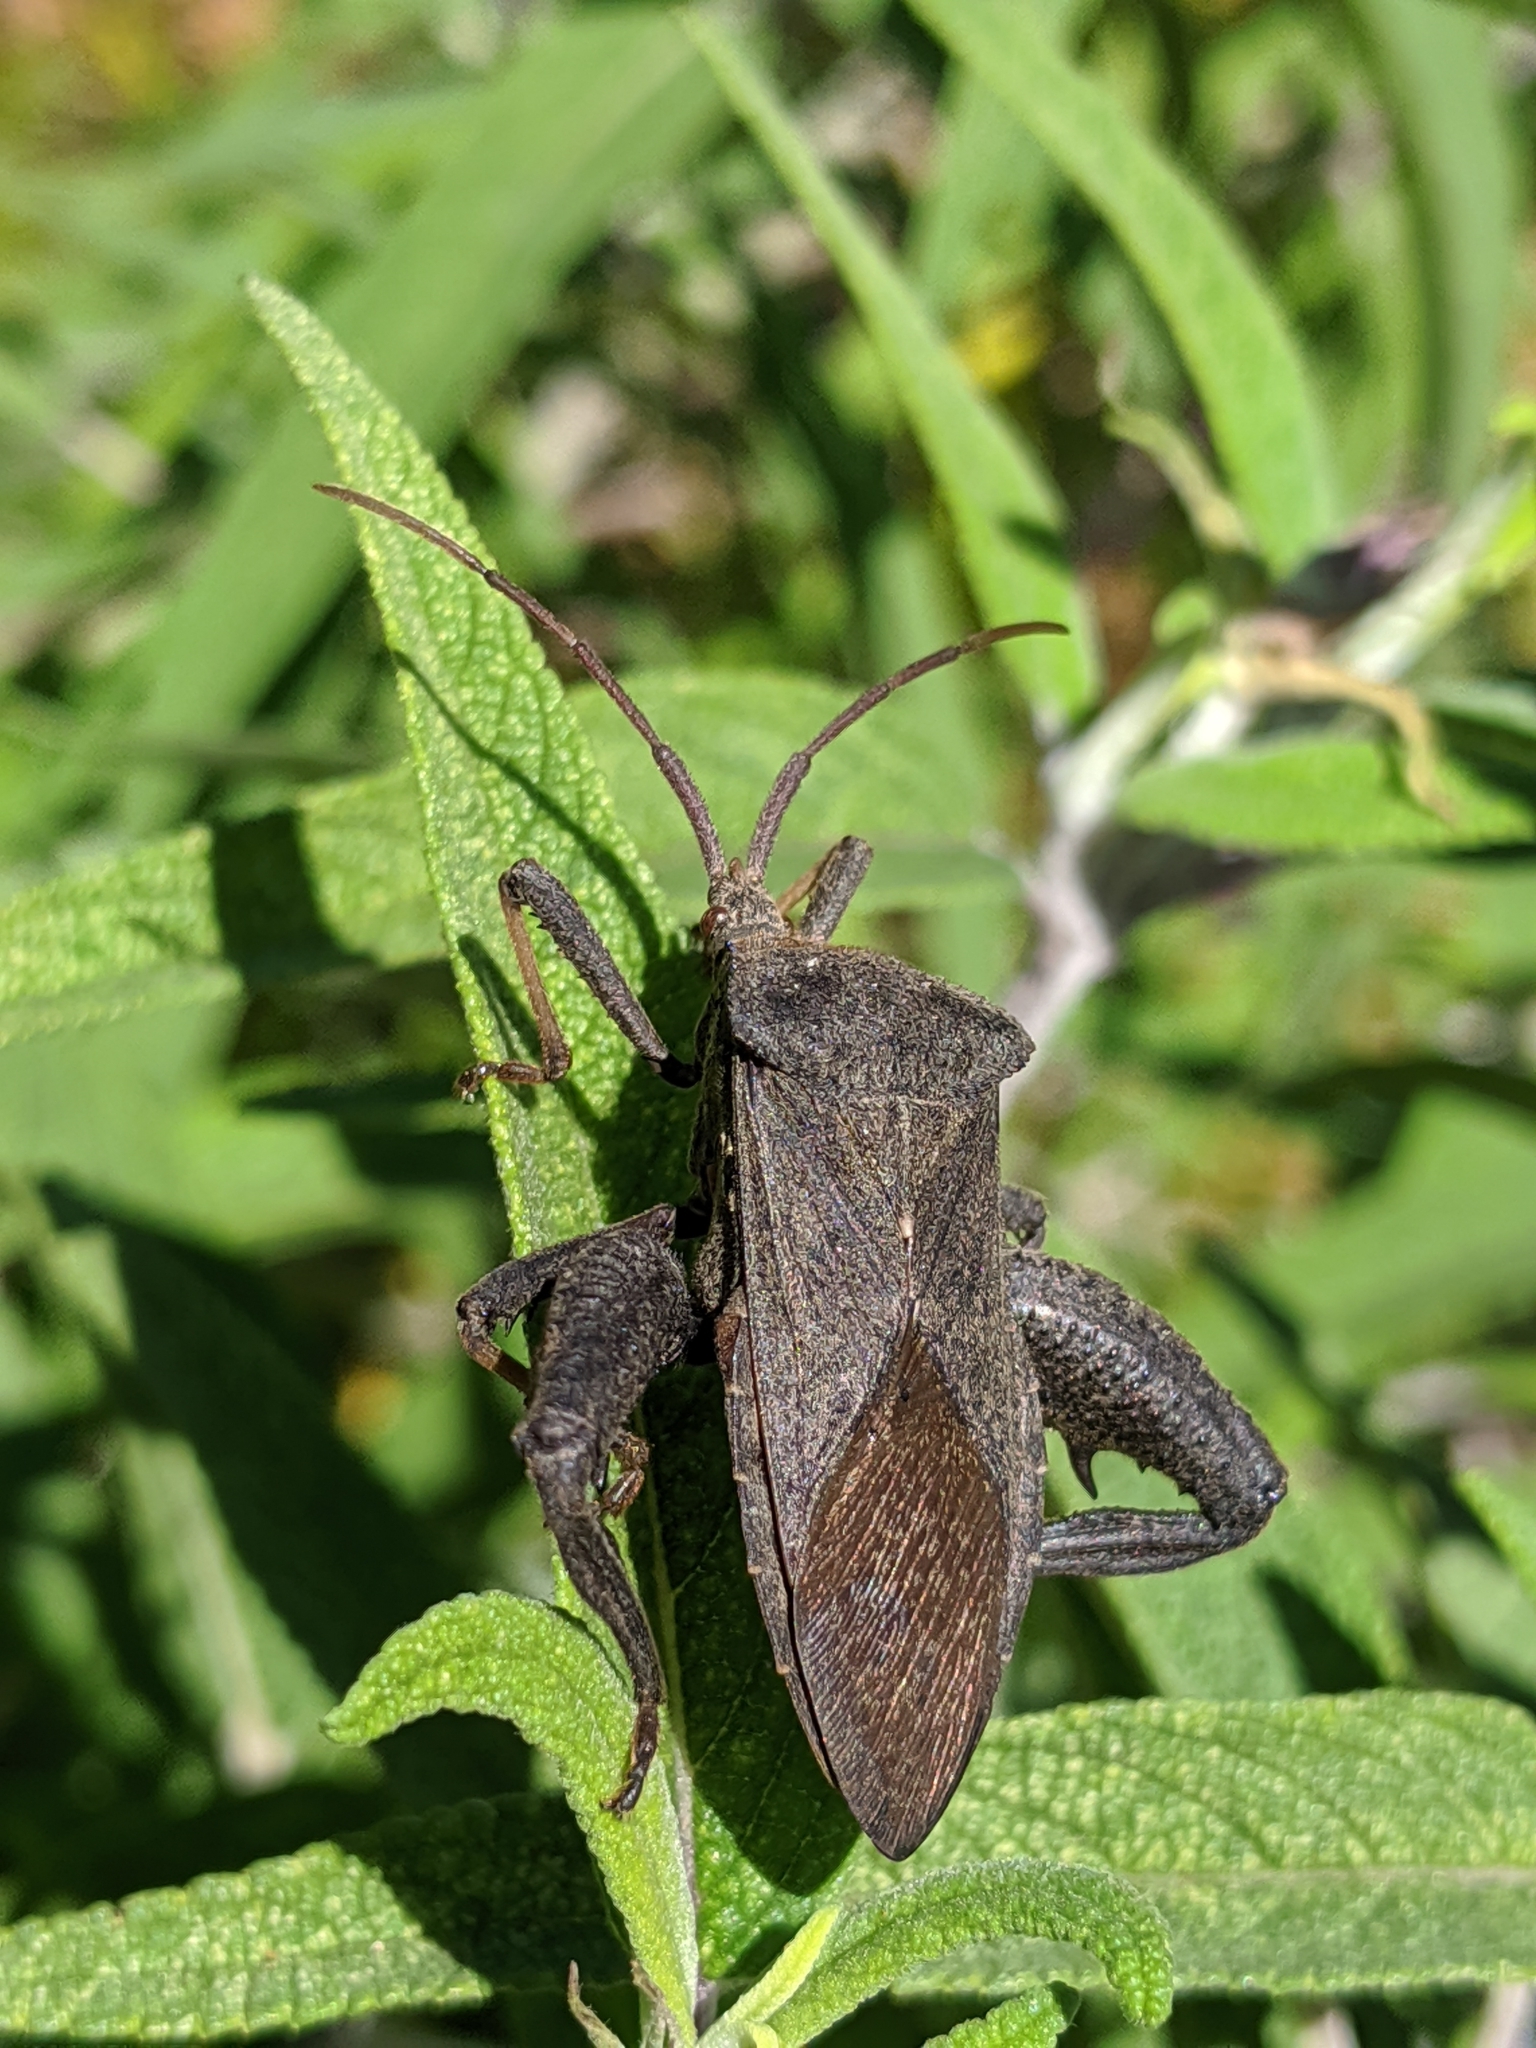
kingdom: Animalia
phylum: Arthropoda
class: Insecta
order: Hemiptera
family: Coreidae
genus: Acanthocephala
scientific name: Acanthocephala femorata
